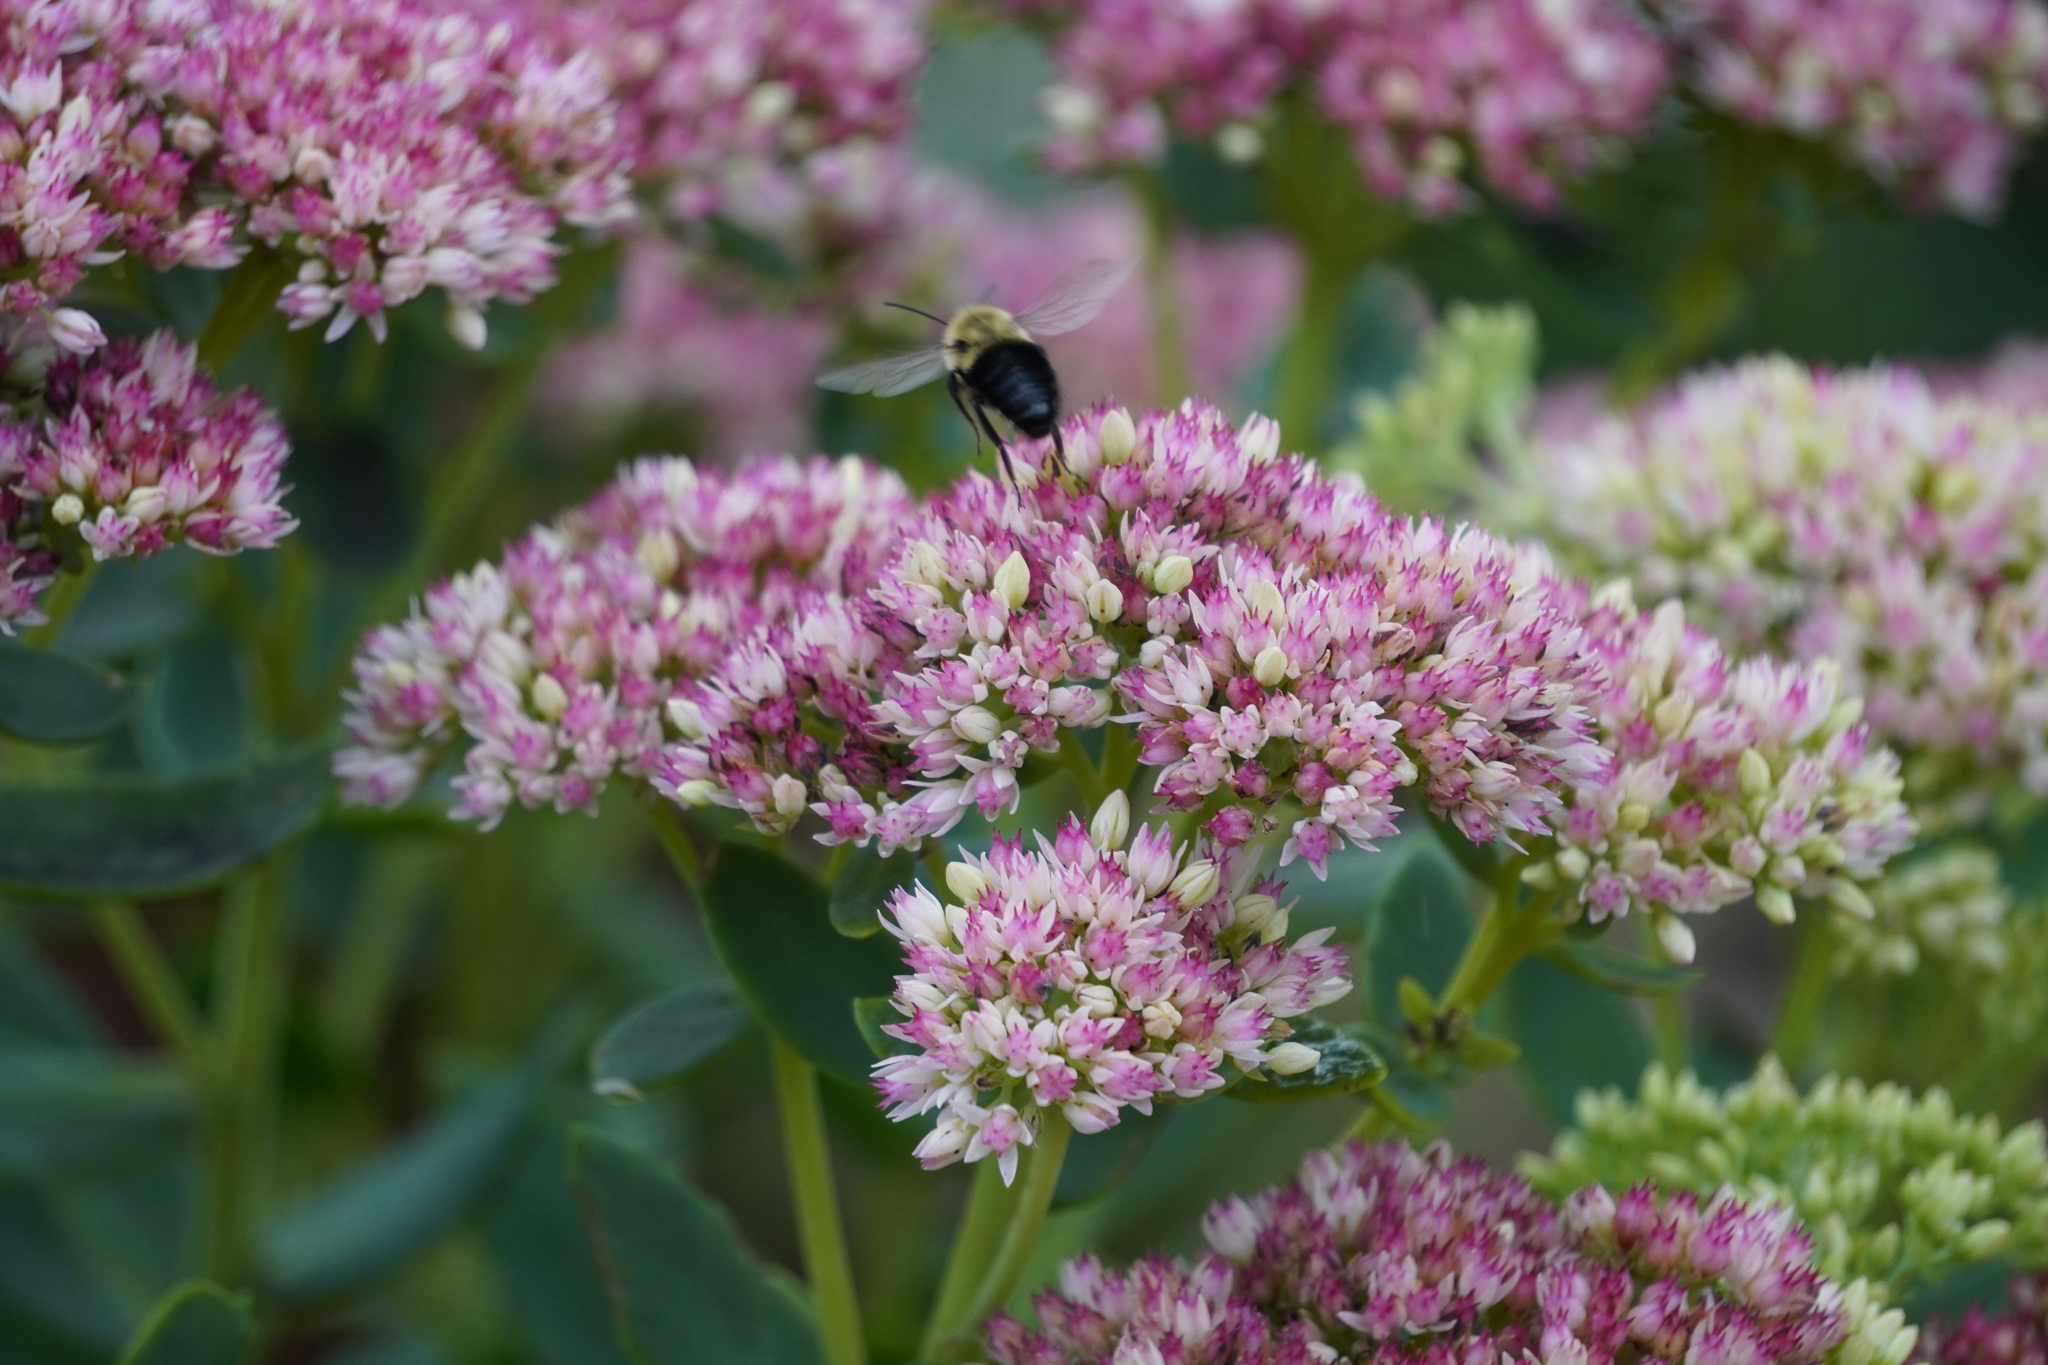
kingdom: Animalia
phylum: Arthropoda
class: Insecta
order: Hymenoptera
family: Apidae
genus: Bombus
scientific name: Bombus impatiens
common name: Common eastern bumble bee
